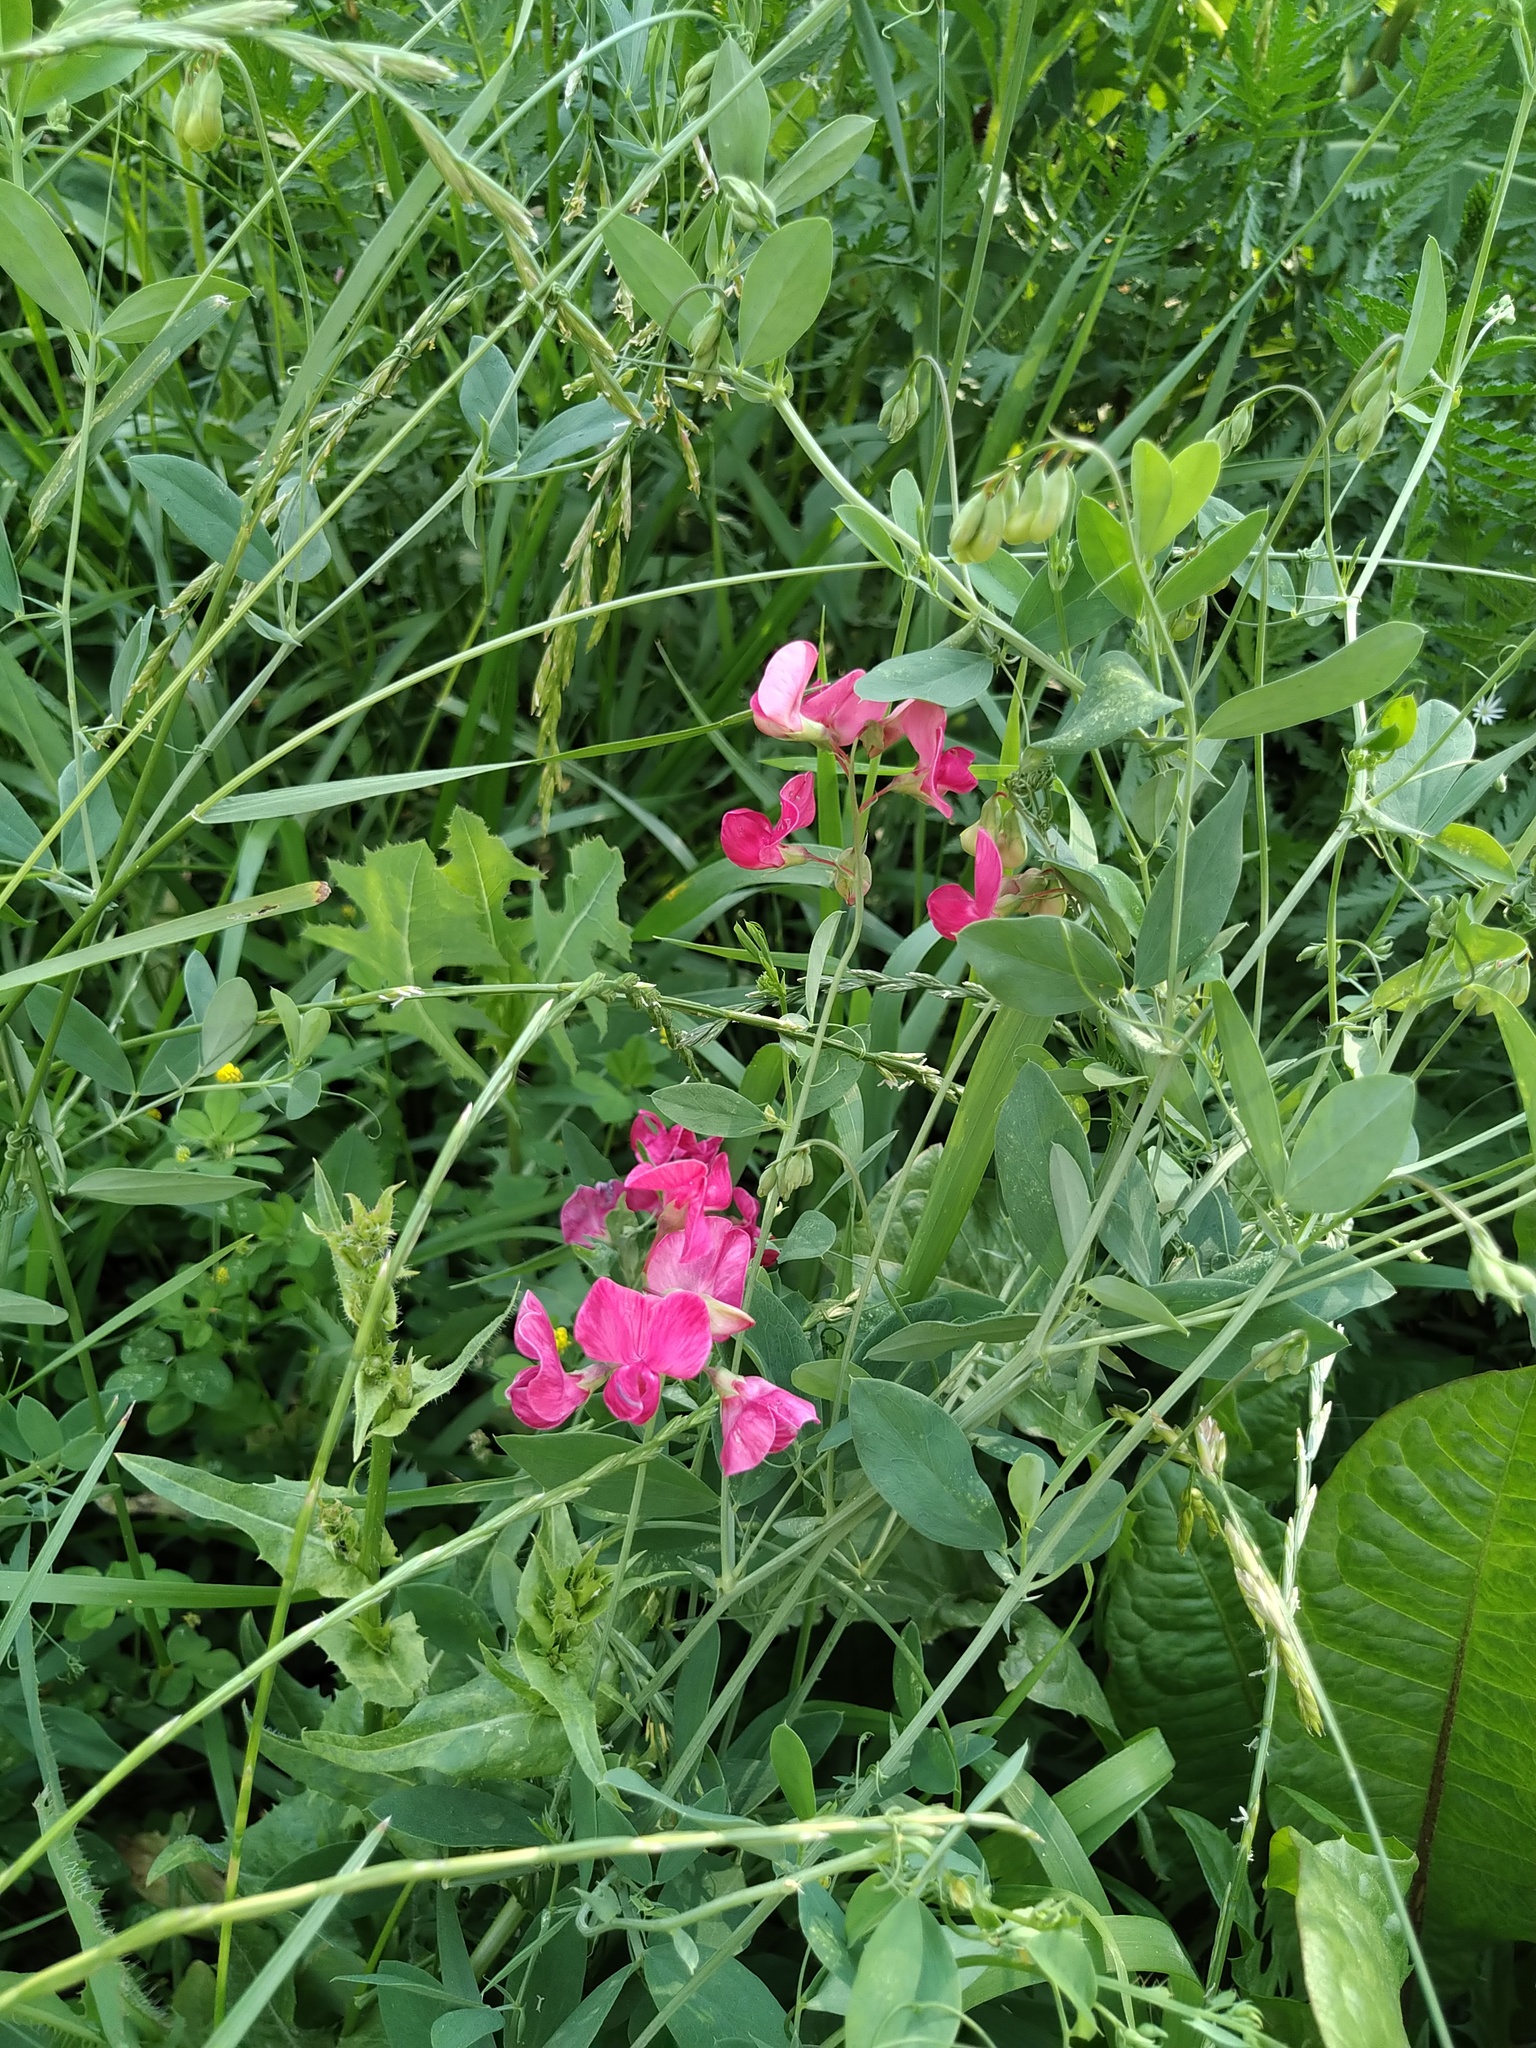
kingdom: Plantae
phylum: Tracheophyta
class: Magnoliopsida
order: Fabales
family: Fabaceae
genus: Lathyrus
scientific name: Lathyrus tuberosus
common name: Tuberous pea
